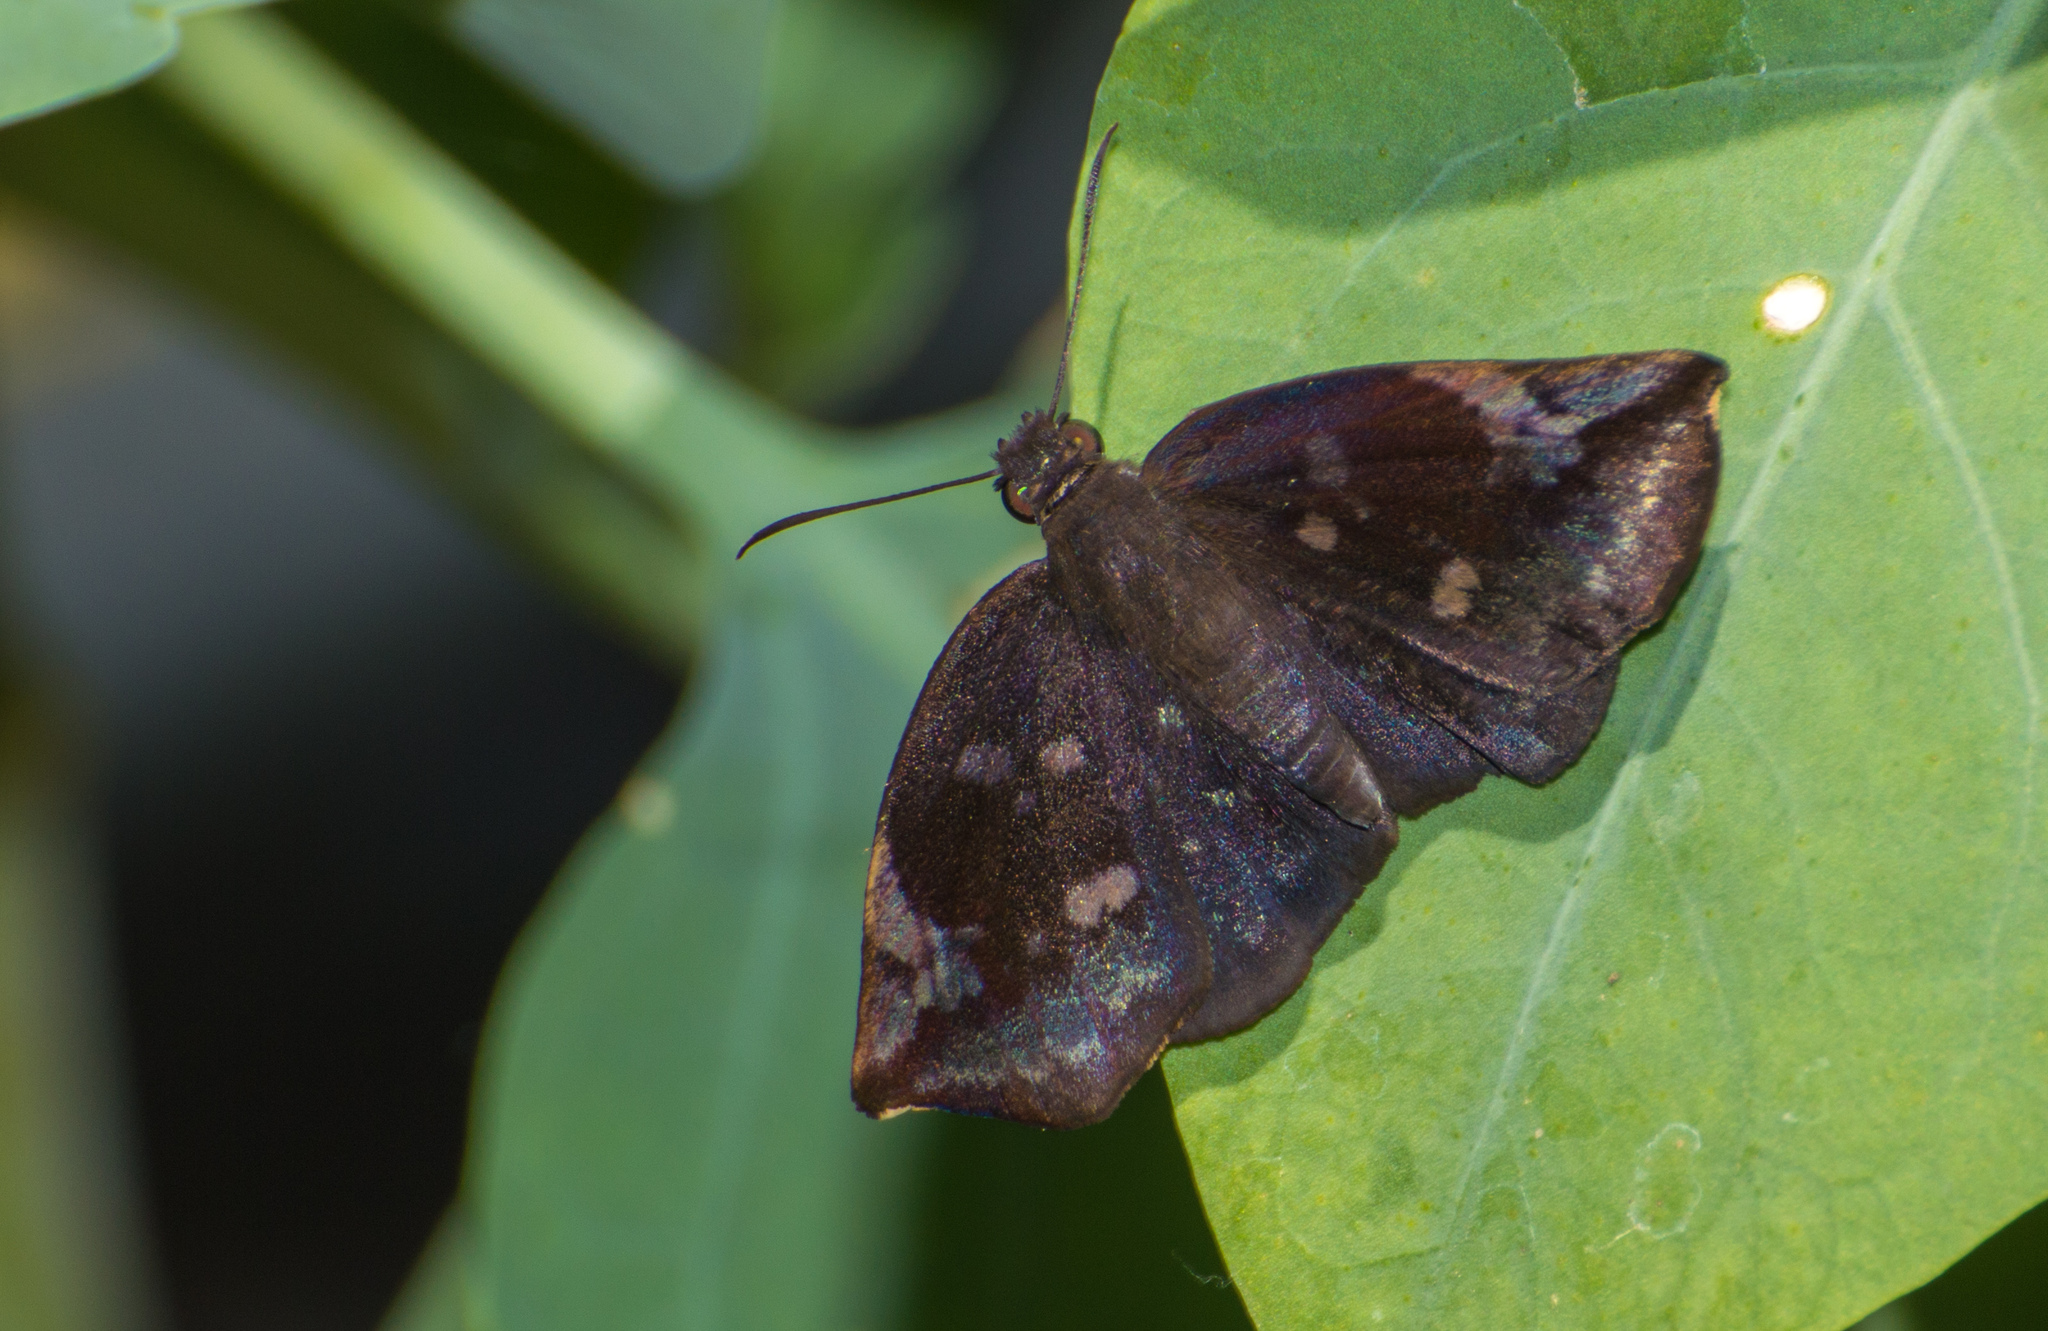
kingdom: Animalia
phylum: Arthropoda
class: Insecta
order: Lepidoptera
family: Hesperiidae
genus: Achlyodes
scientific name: Achlyodes thraso
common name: Sickle-winged skipper
